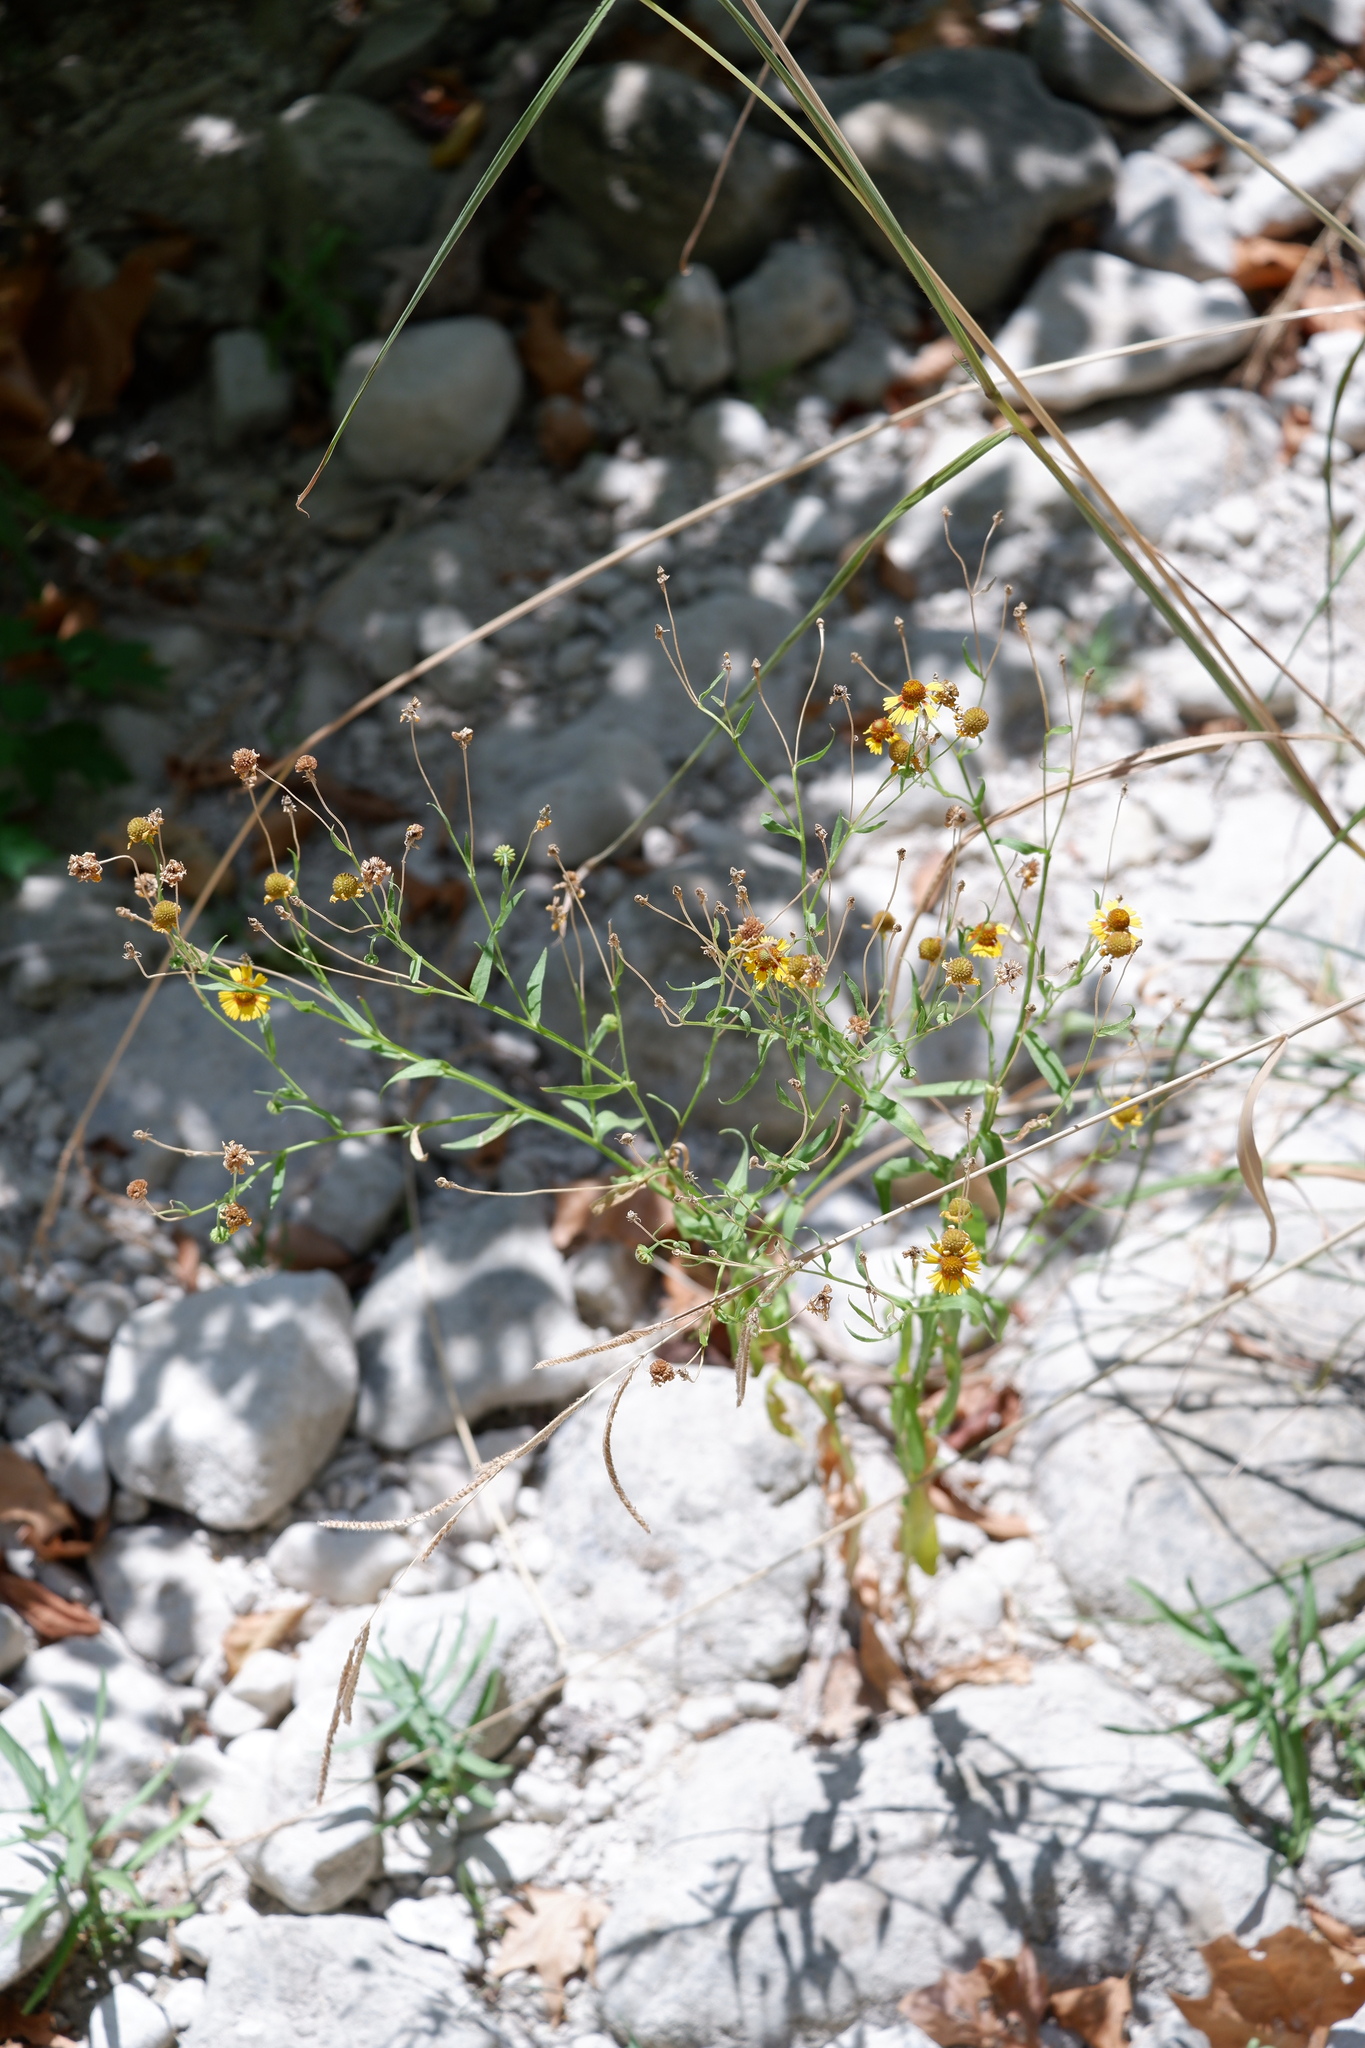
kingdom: Plantae
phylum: Tracheophyta
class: Magnoliopsida
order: Asterales
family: Asteraceae
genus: Helenium
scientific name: Helenium elegans
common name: Pretty sneezeweed
